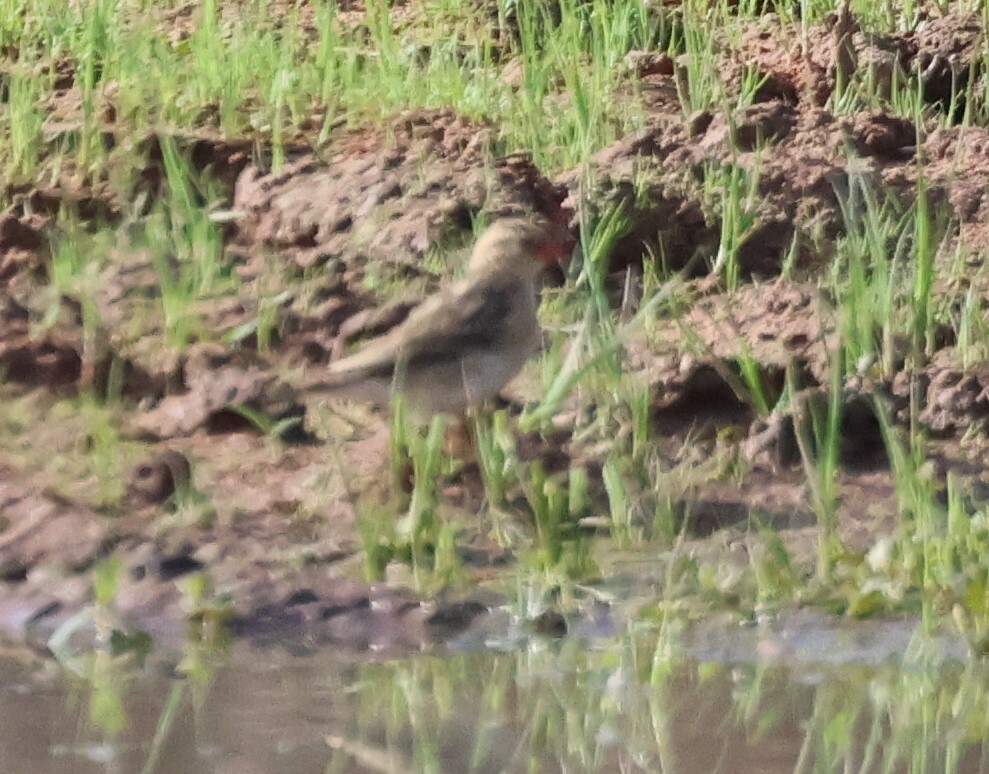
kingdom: Animalia
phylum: Chordata
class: Aves
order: Passeriformes
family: Viduidae
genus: Vidua
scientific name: Vidua regia
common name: Shaft-tailed whydah
